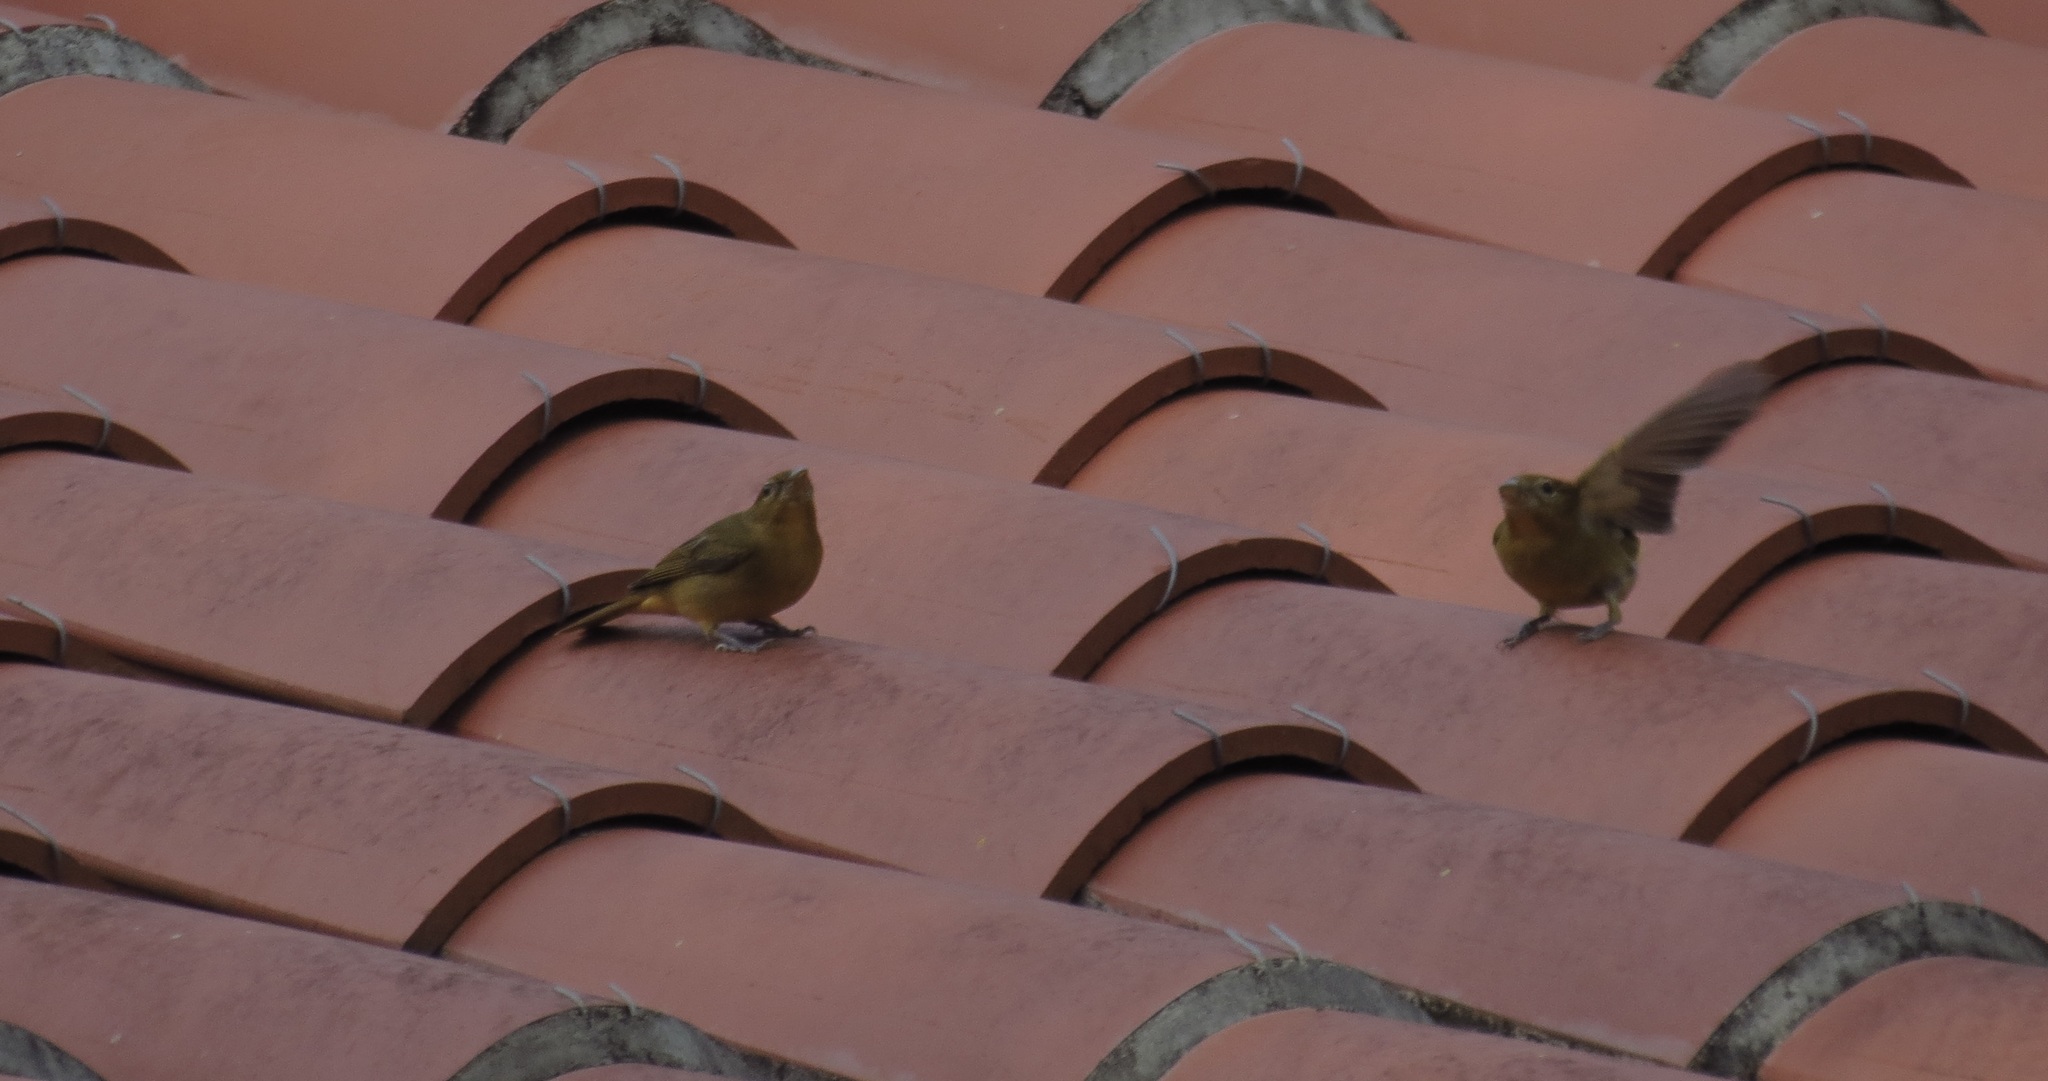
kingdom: Animalia
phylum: Chordata
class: Aves
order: Passeriformes
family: Cardinalidae
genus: Piranga
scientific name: Piranga rubra
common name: Summer tanager
